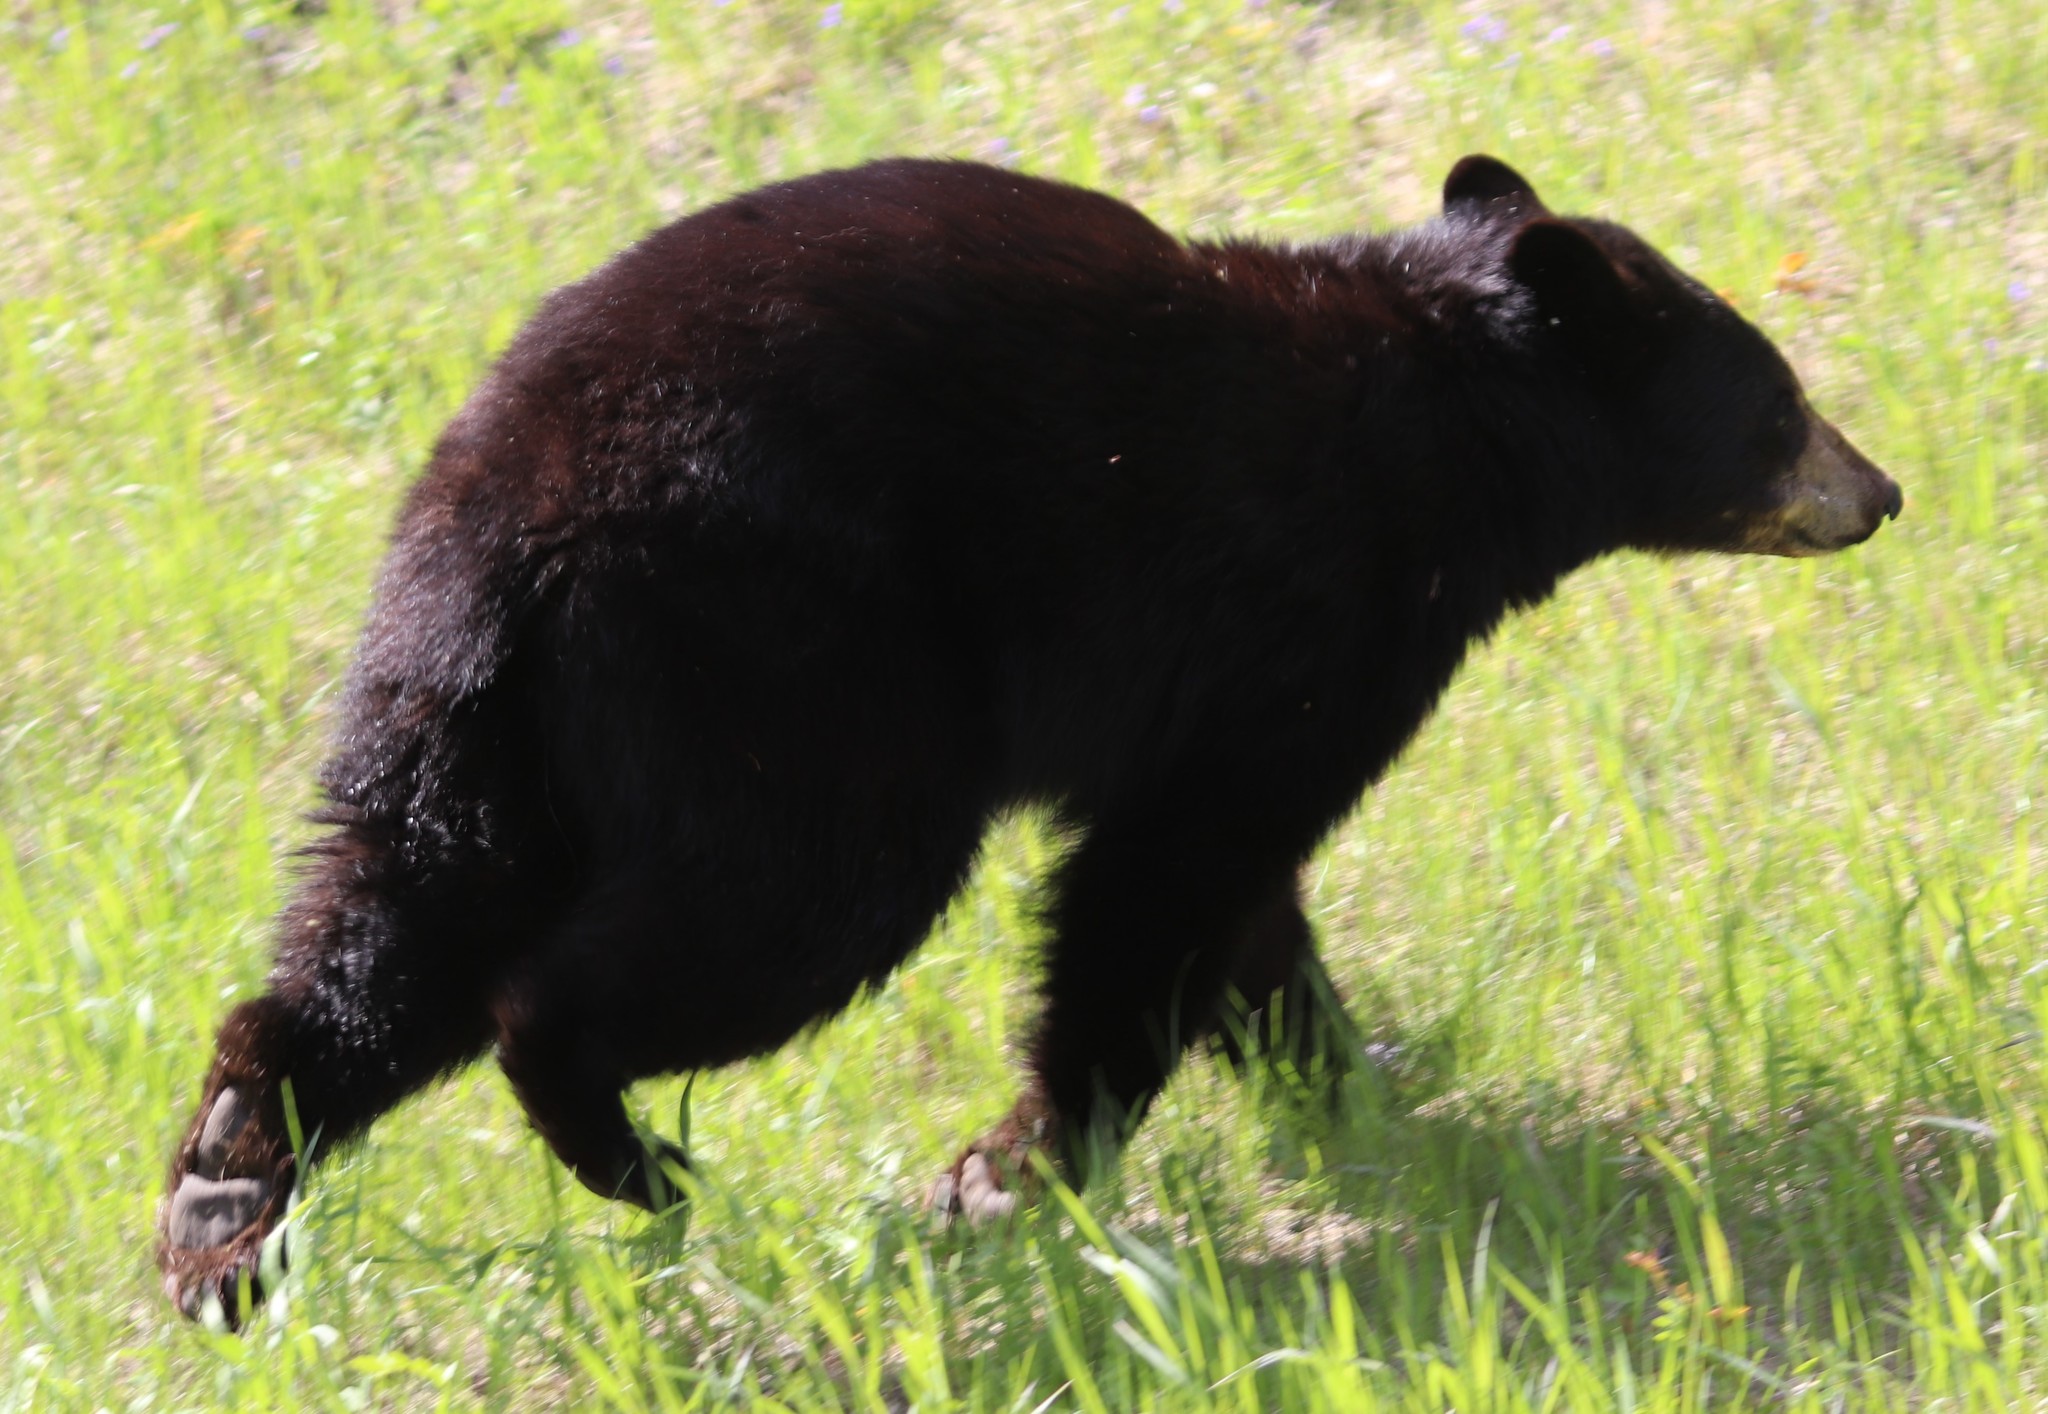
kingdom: Animalia
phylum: Chordata
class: Mammalia
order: Carnivora
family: Ursidae
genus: Ursus
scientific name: Ursus americanus
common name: American black bear
